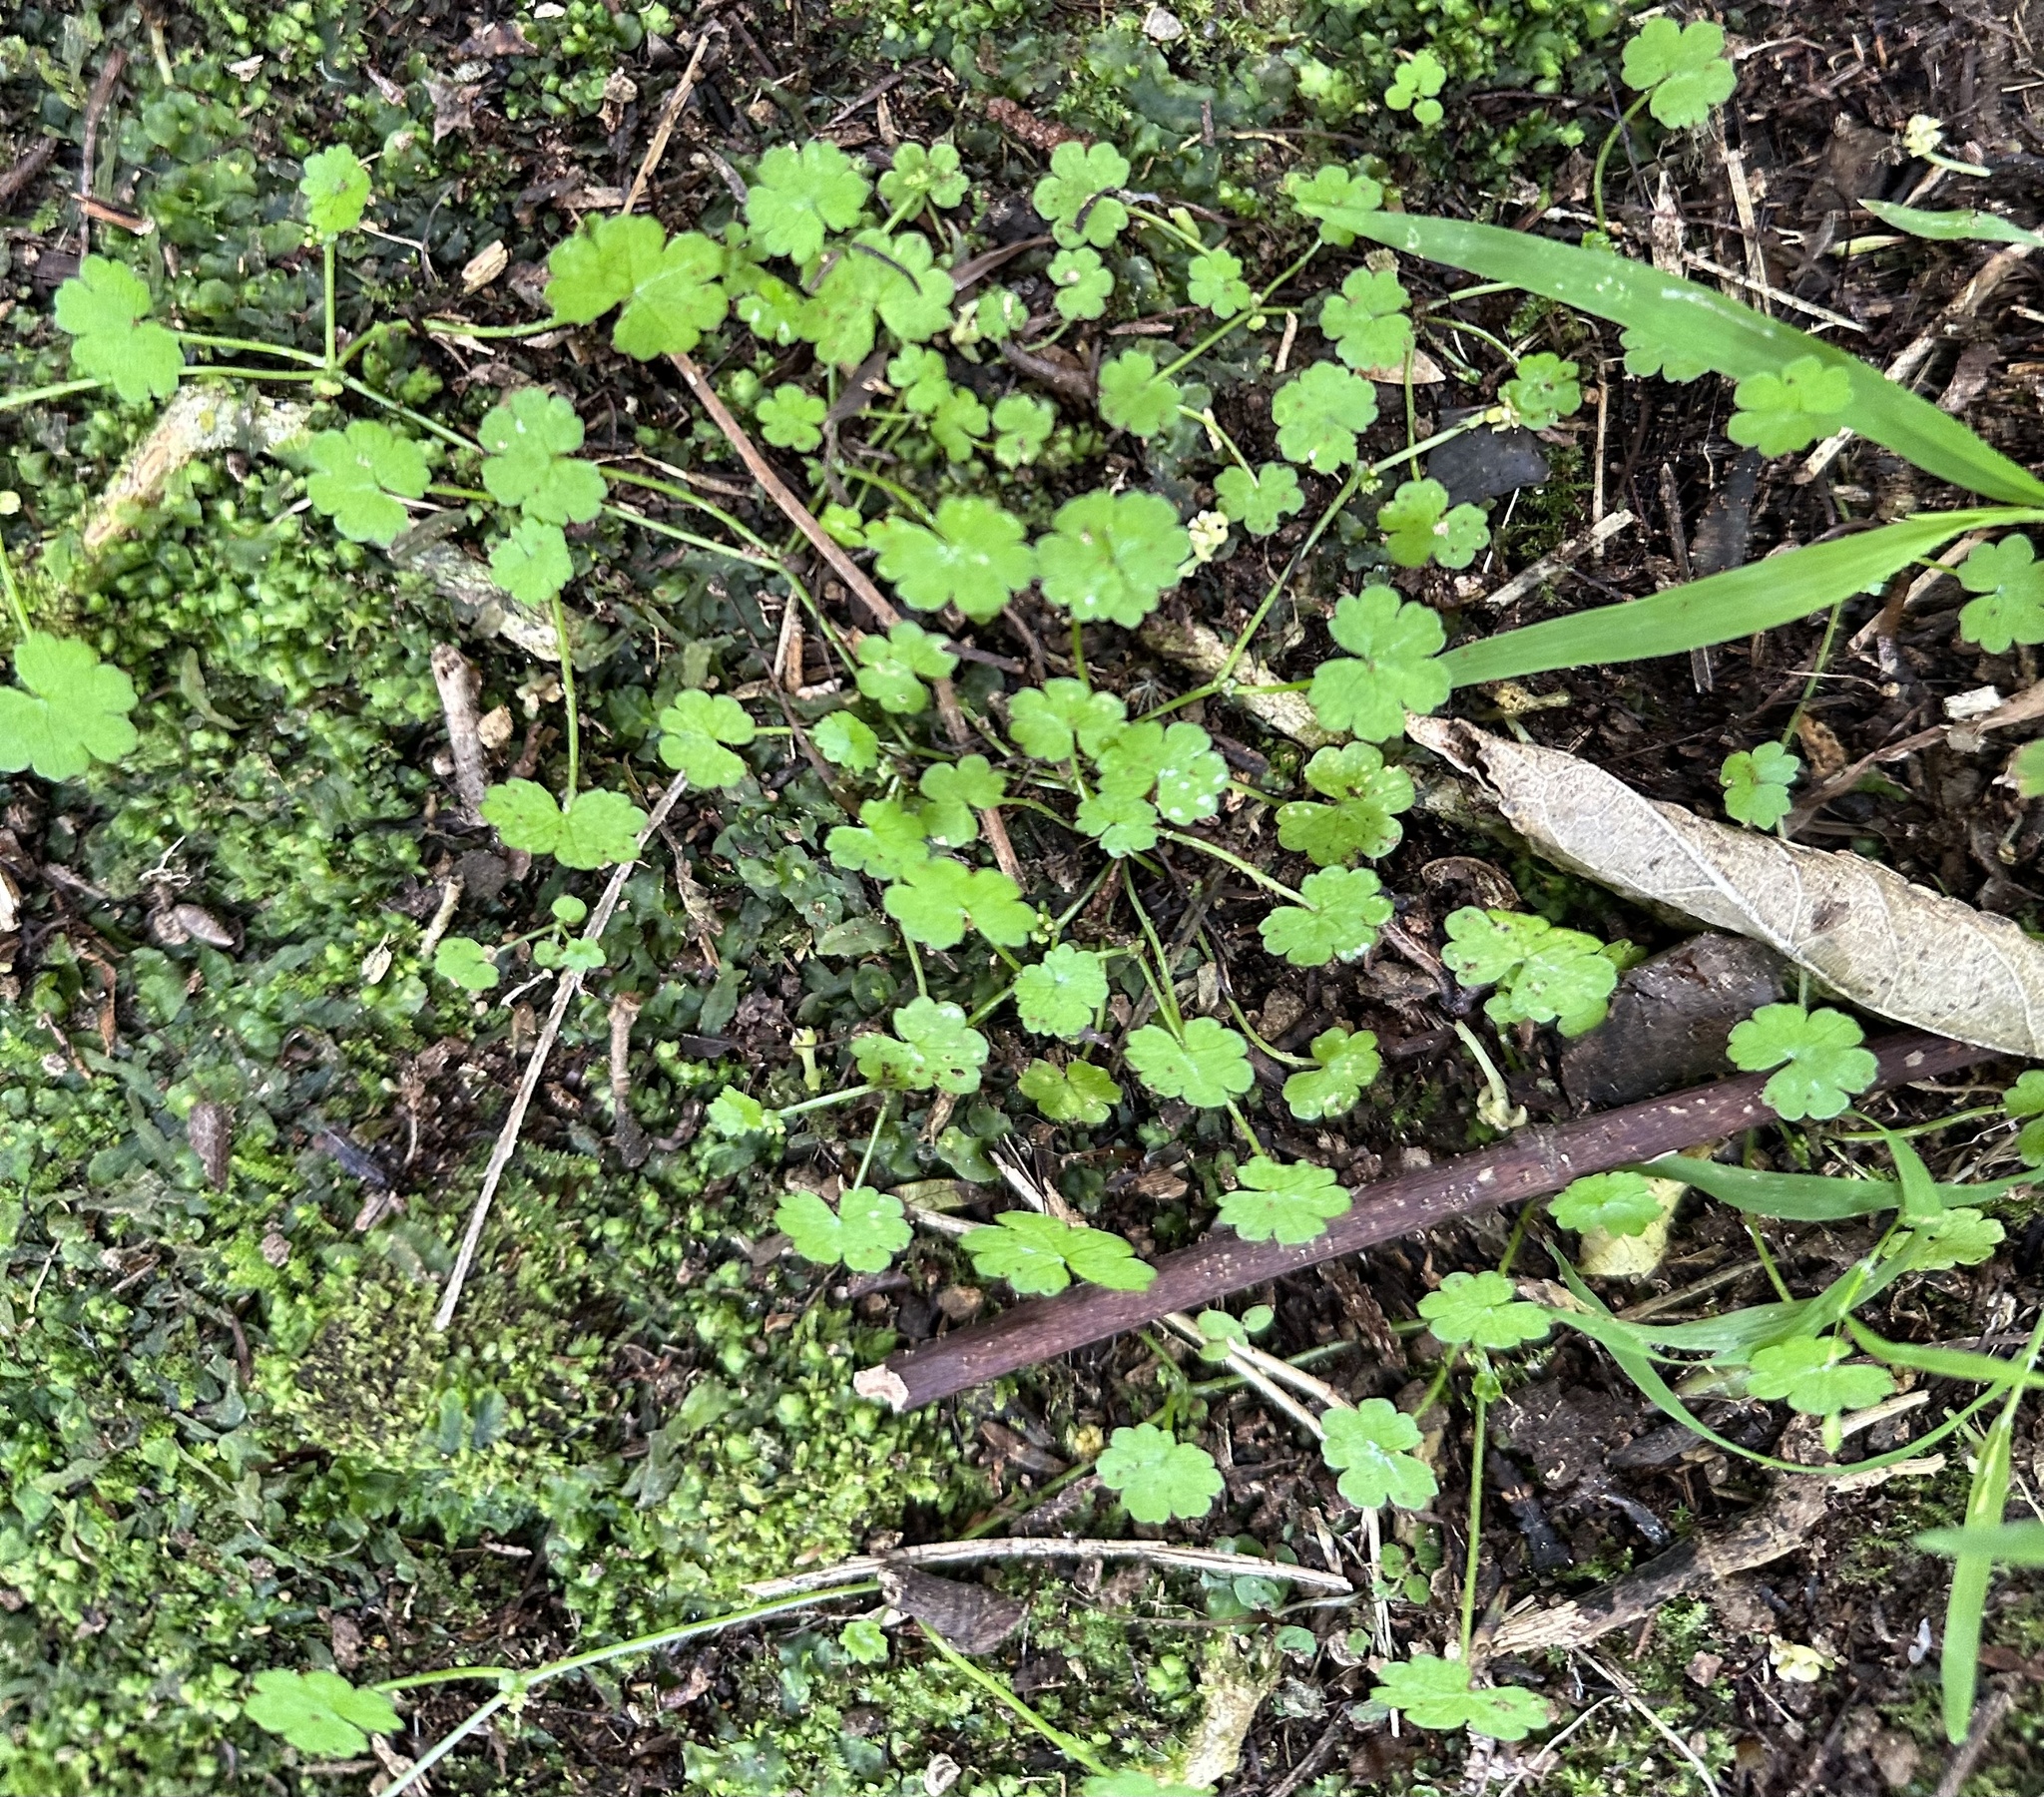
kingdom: Plantae
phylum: Tracheophyta
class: Magnoliopsida
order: Apiales
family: Araliaceae
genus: Hydrocotyle
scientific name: Hydrocotyle heteromeria
